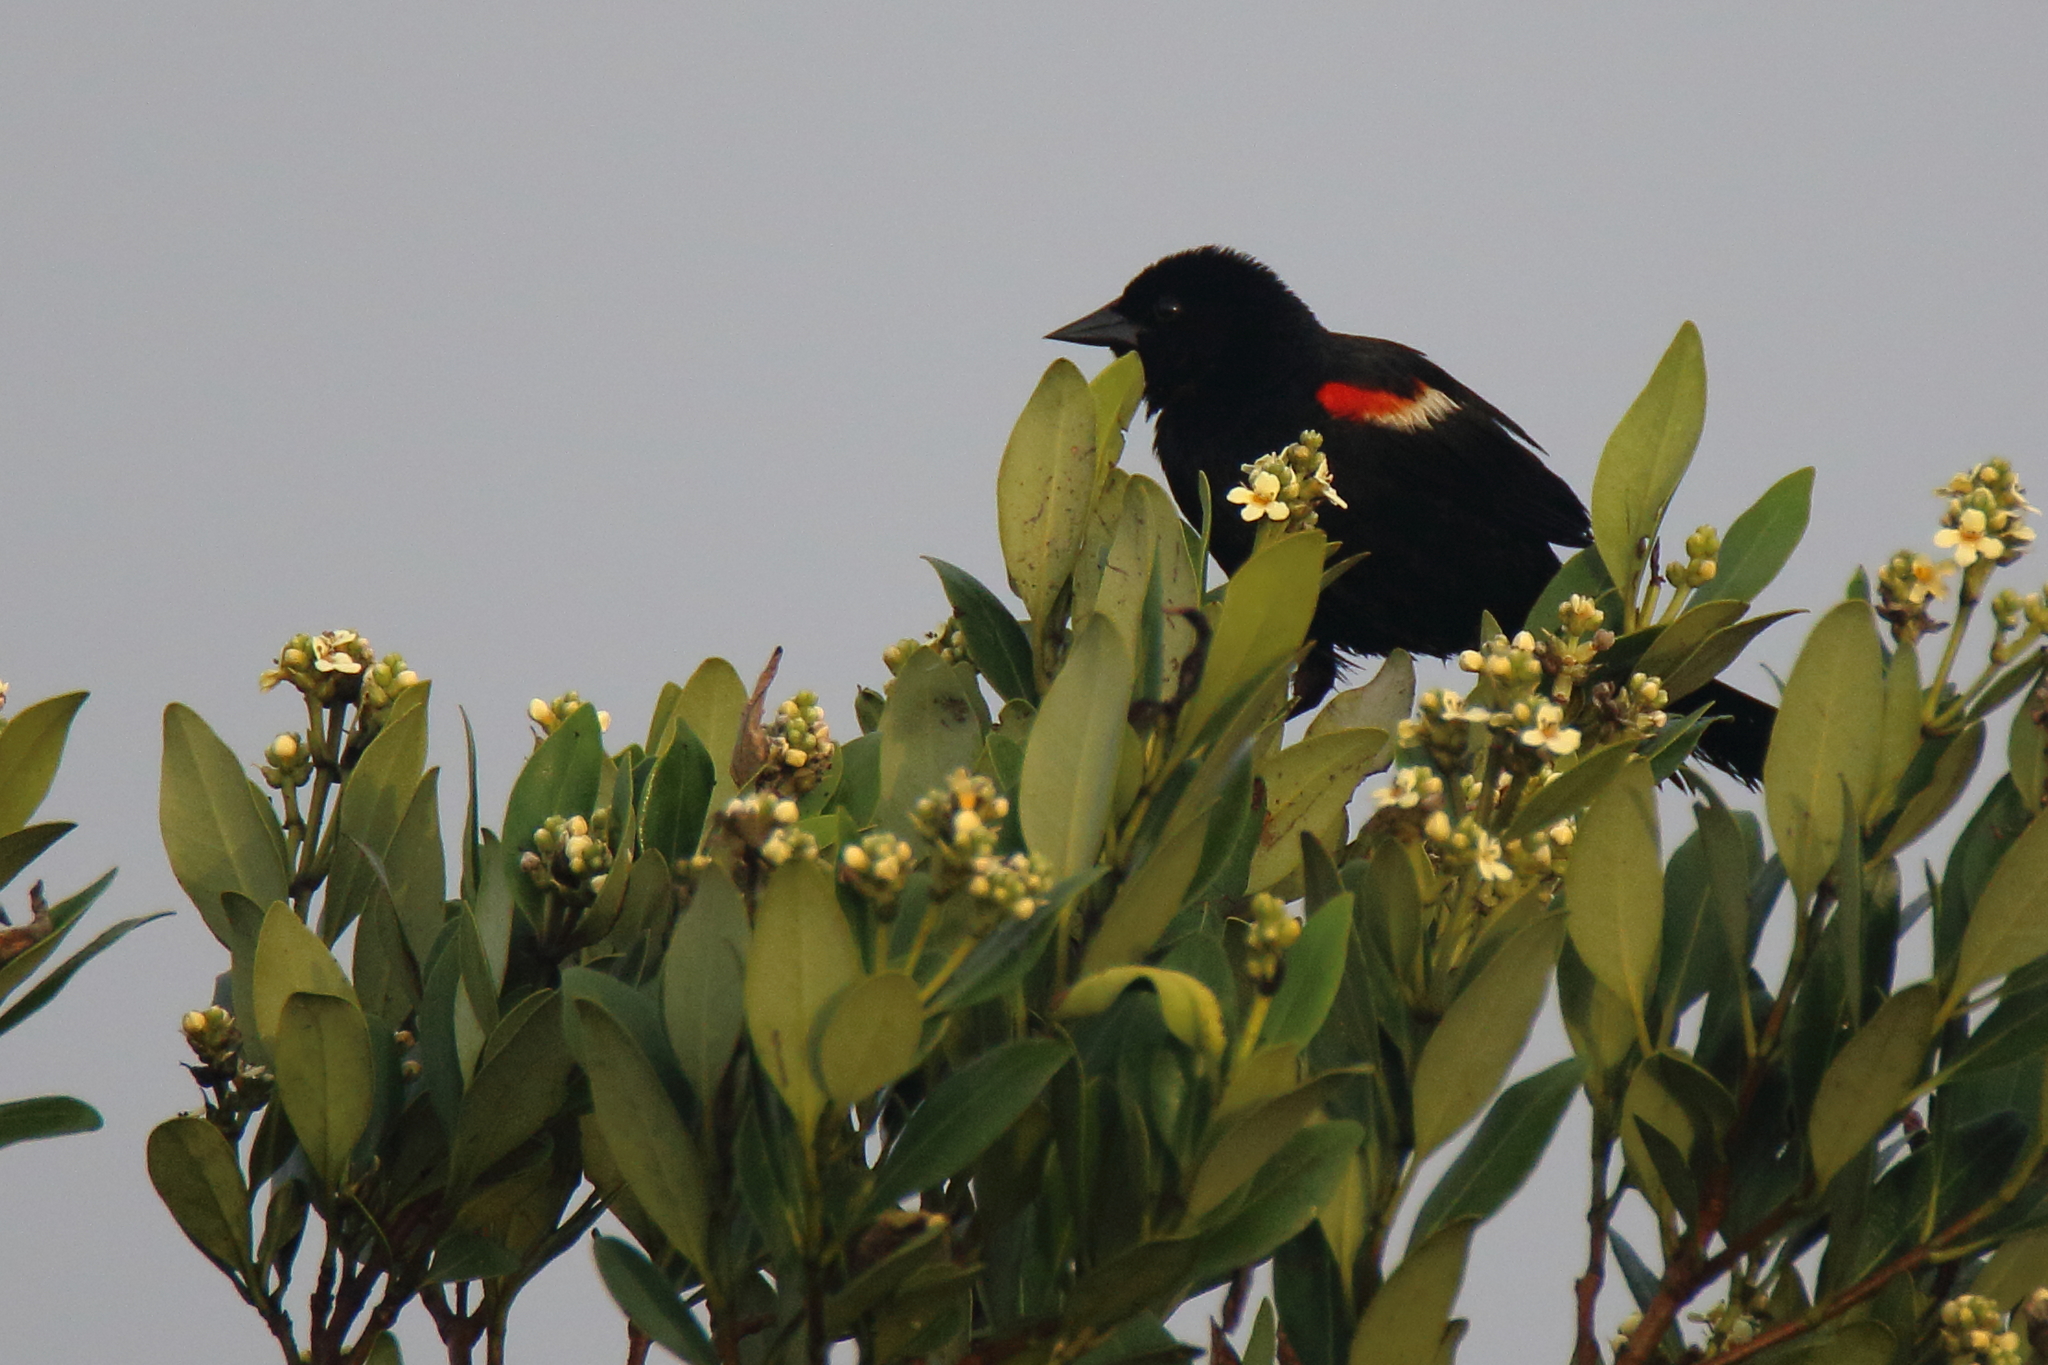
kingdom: Animalia
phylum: Chordata
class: Aves
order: Passeriformes
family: Icteridae
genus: Agelaius
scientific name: Agelaius phoeniceus
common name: Red-winged blackbird
